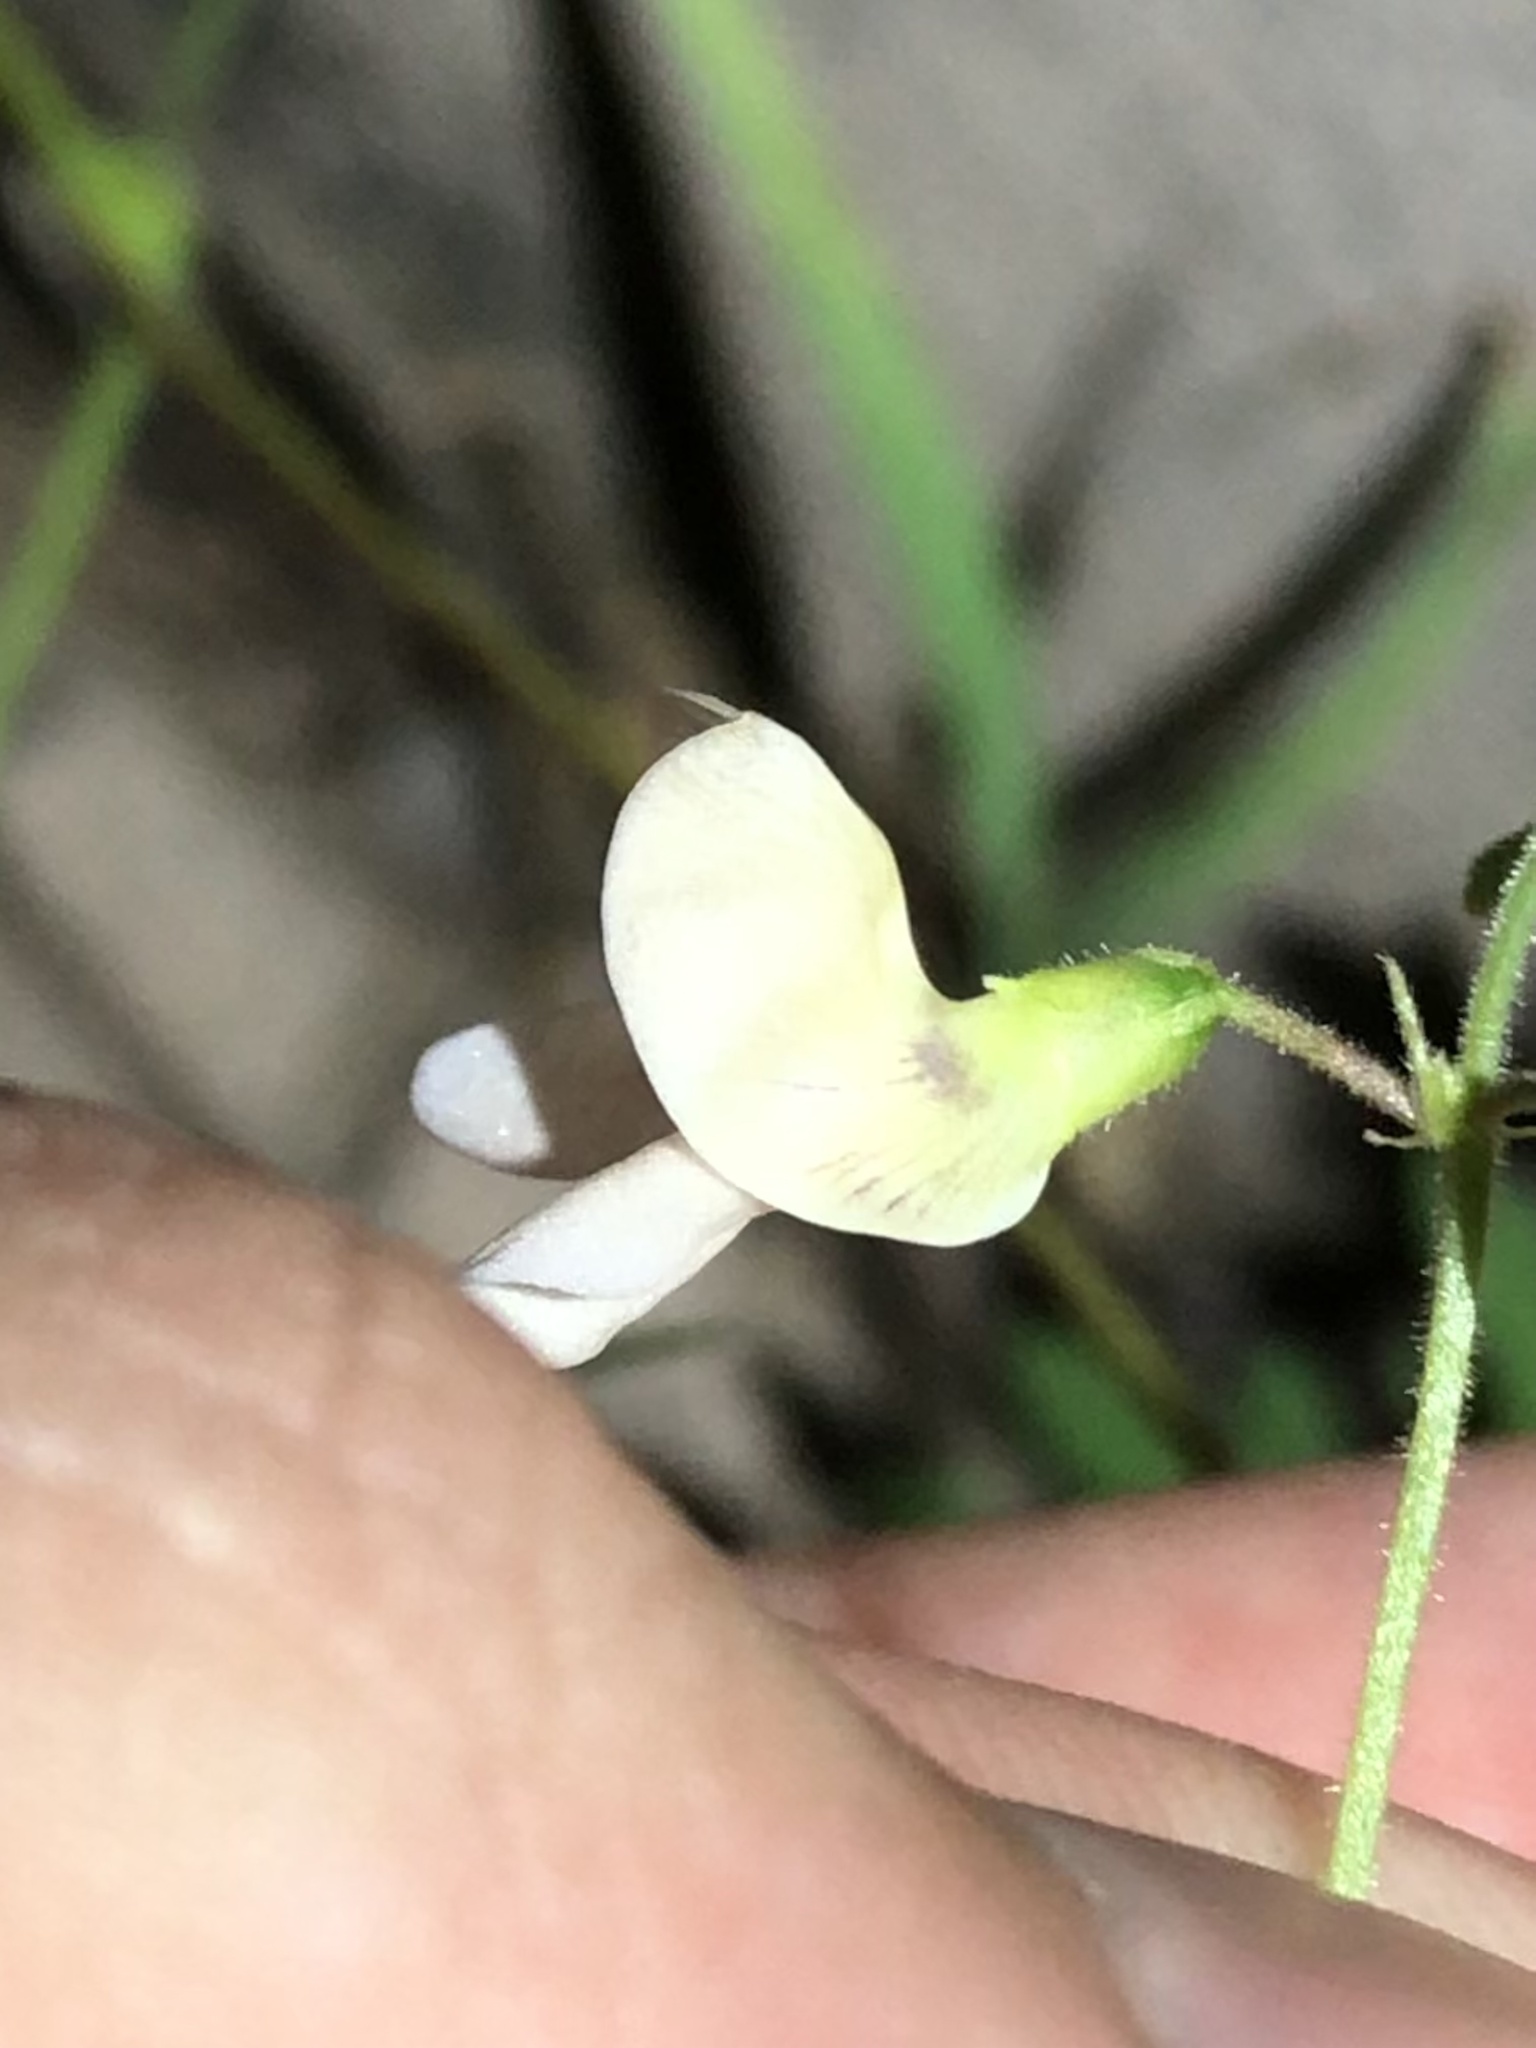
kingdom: Plantae
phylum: Tracheophyta
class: Magnoliopsida
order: Fabales
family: Fabaceae
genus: Phaseolus
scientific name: Phaseolus acutifolius
